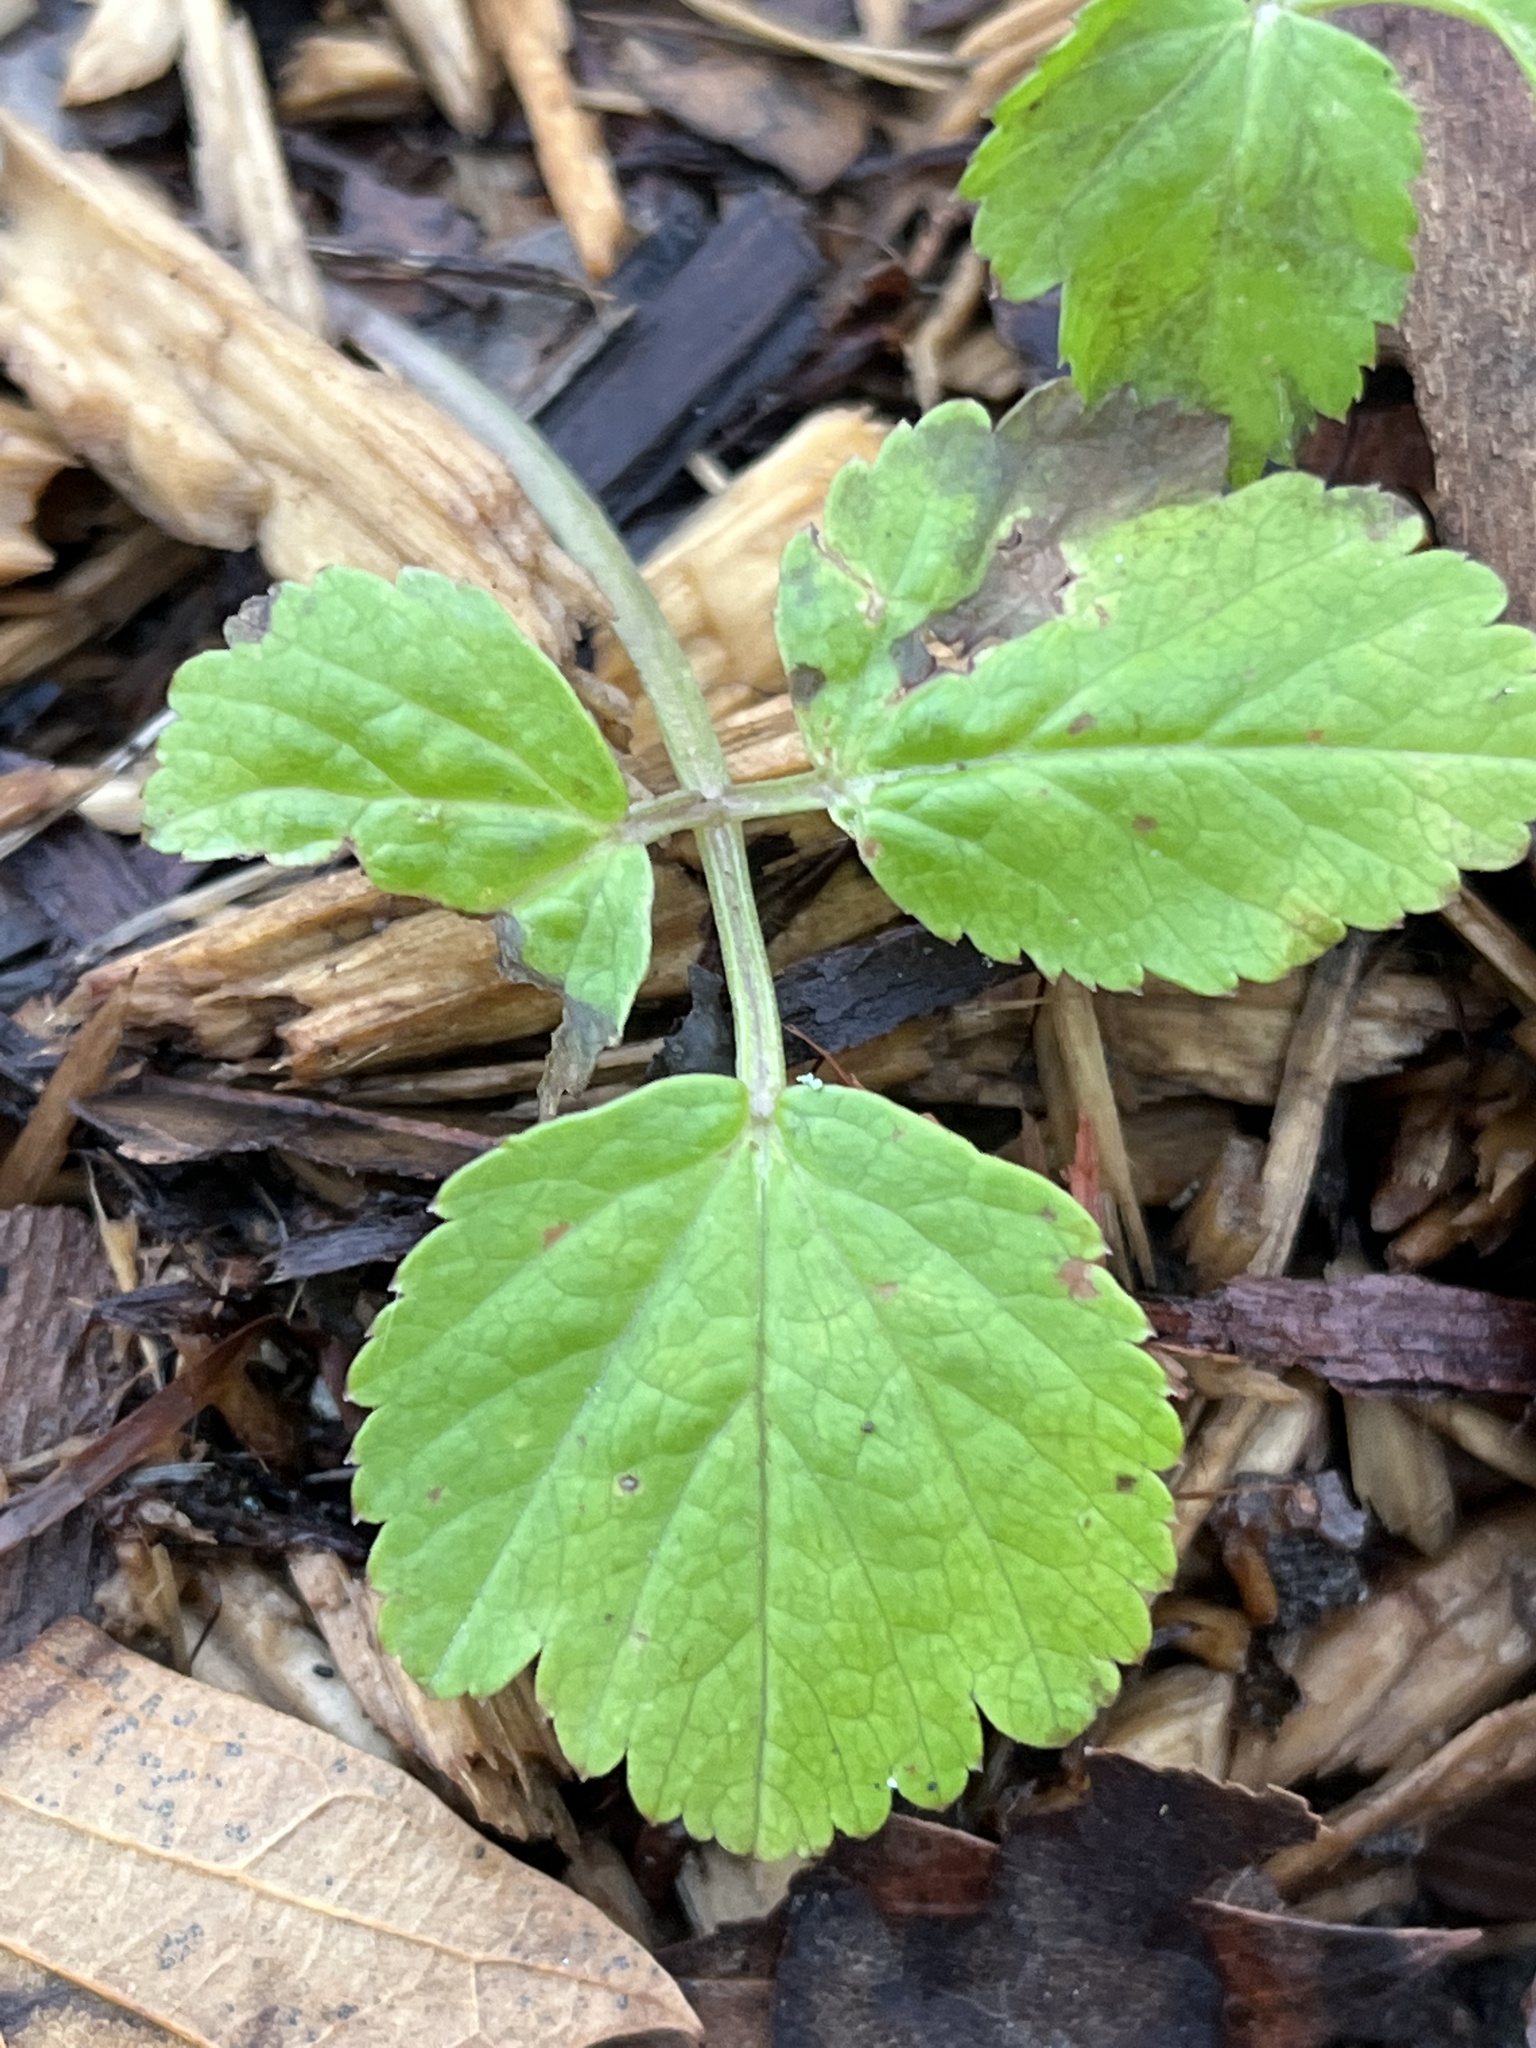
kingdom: Plantae
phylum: Tracheophyta
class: Magnoliopsida
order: Apiales
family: Apiaceae
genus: Aegopodium
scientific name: Aegopodium podagraria
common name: Ground-elder
